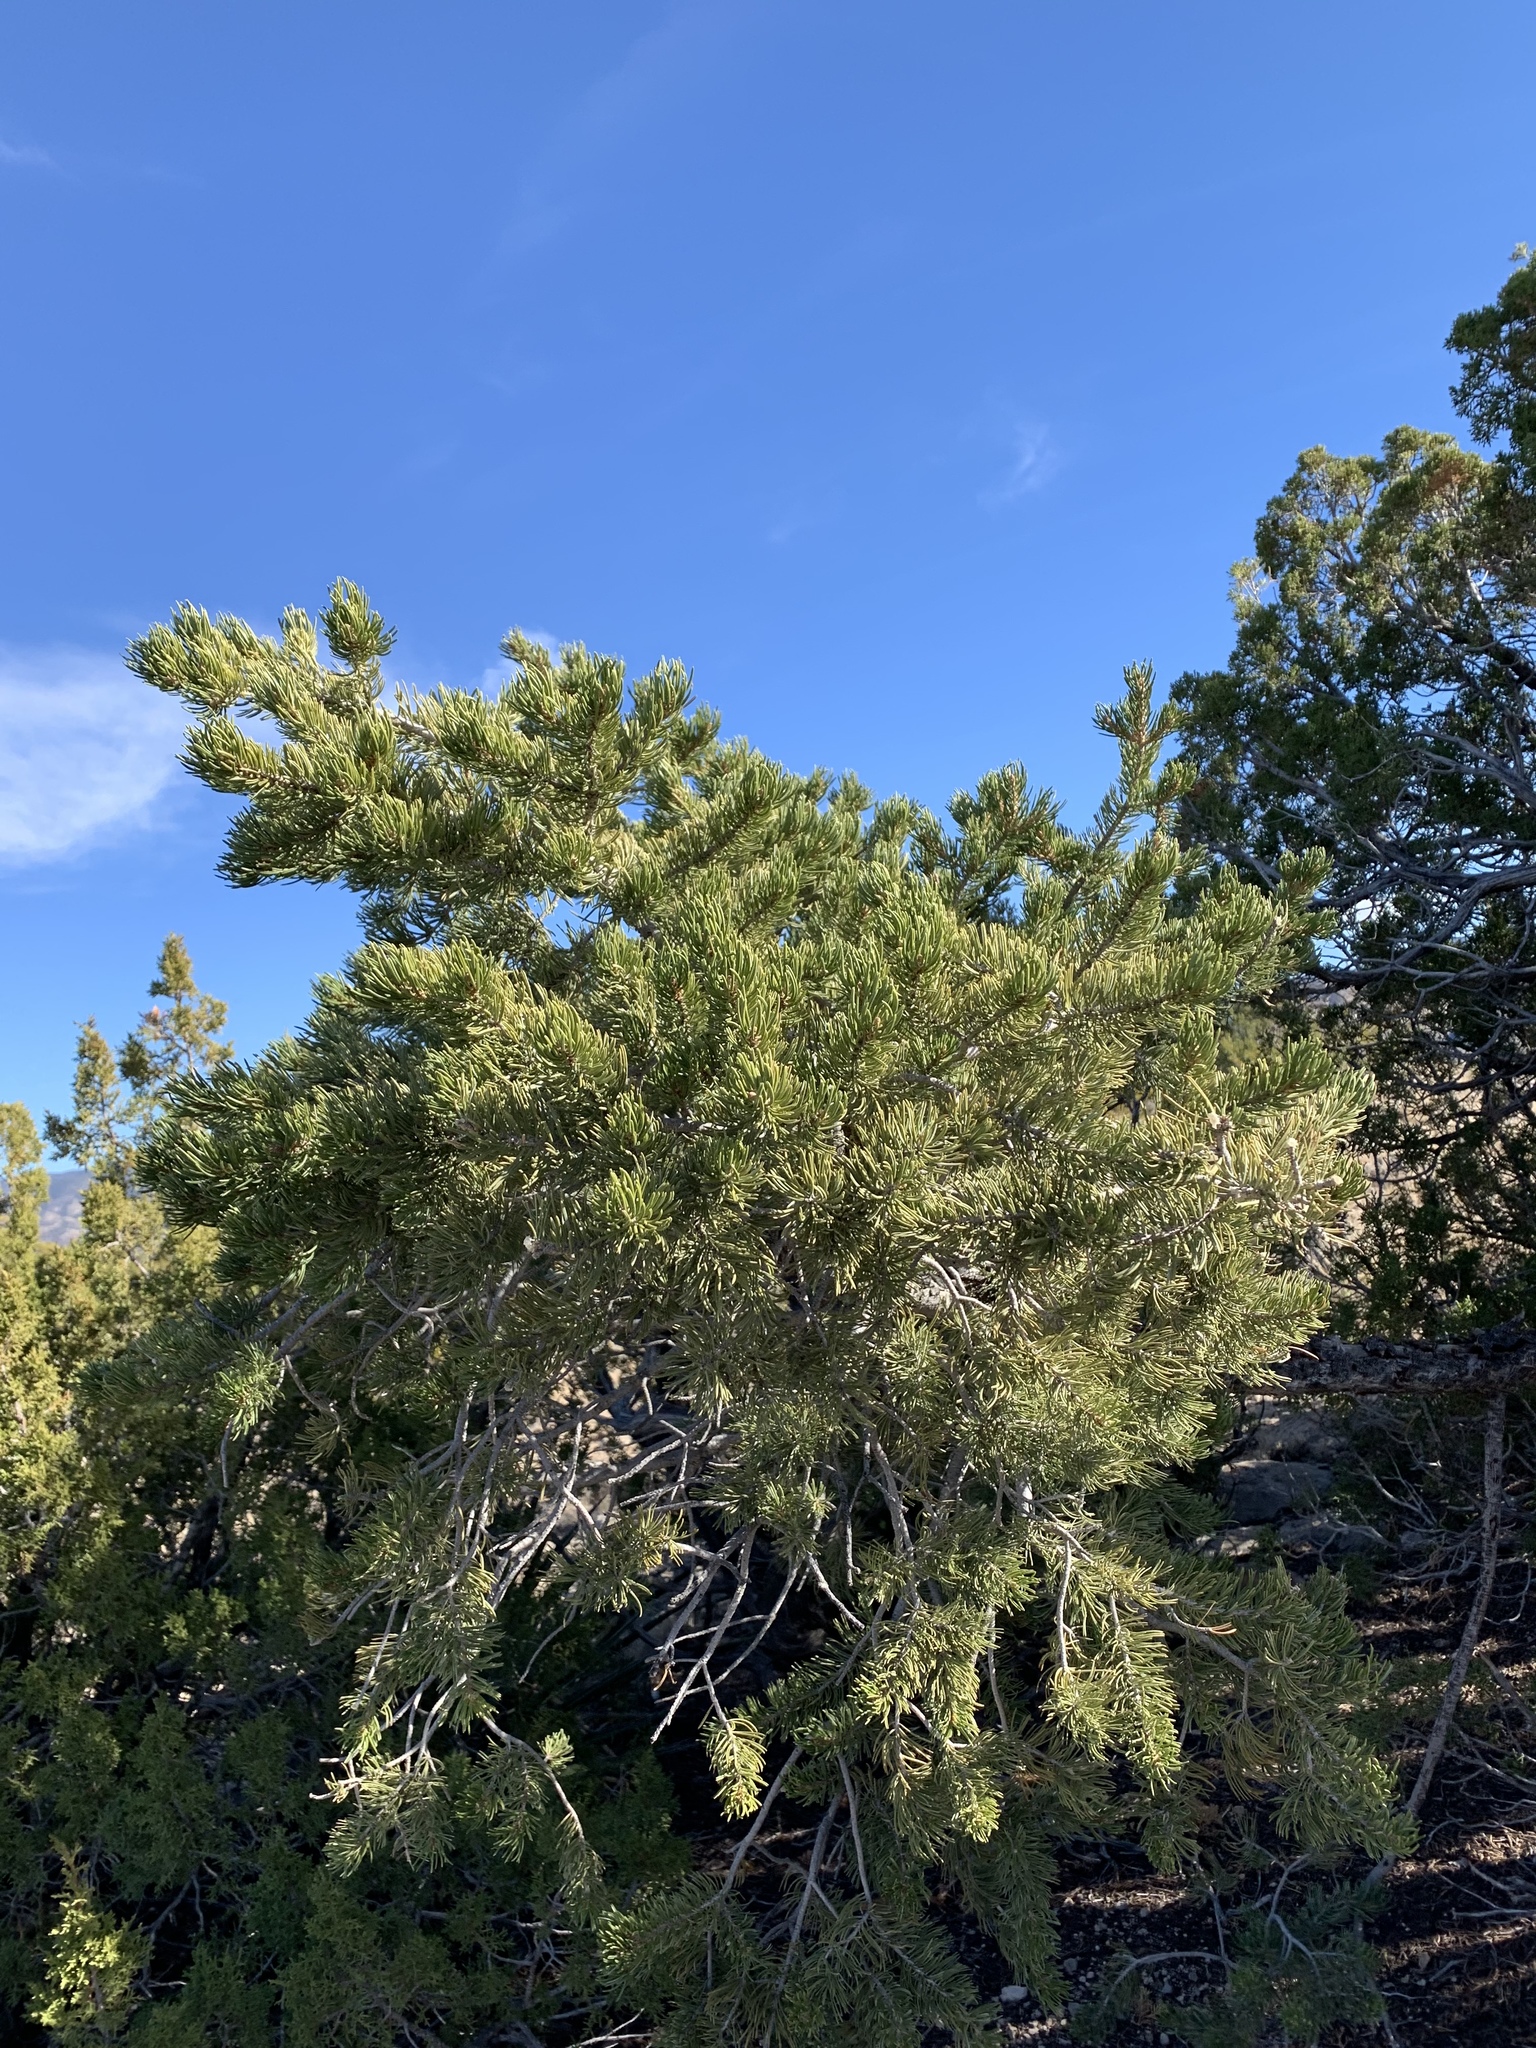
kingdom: Plantae
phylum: Tracheophyta
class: Pinopsida
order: Pinales
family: Pinaceae
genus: Pinus
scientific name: Pinus edulis
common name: Colorado pinyon
